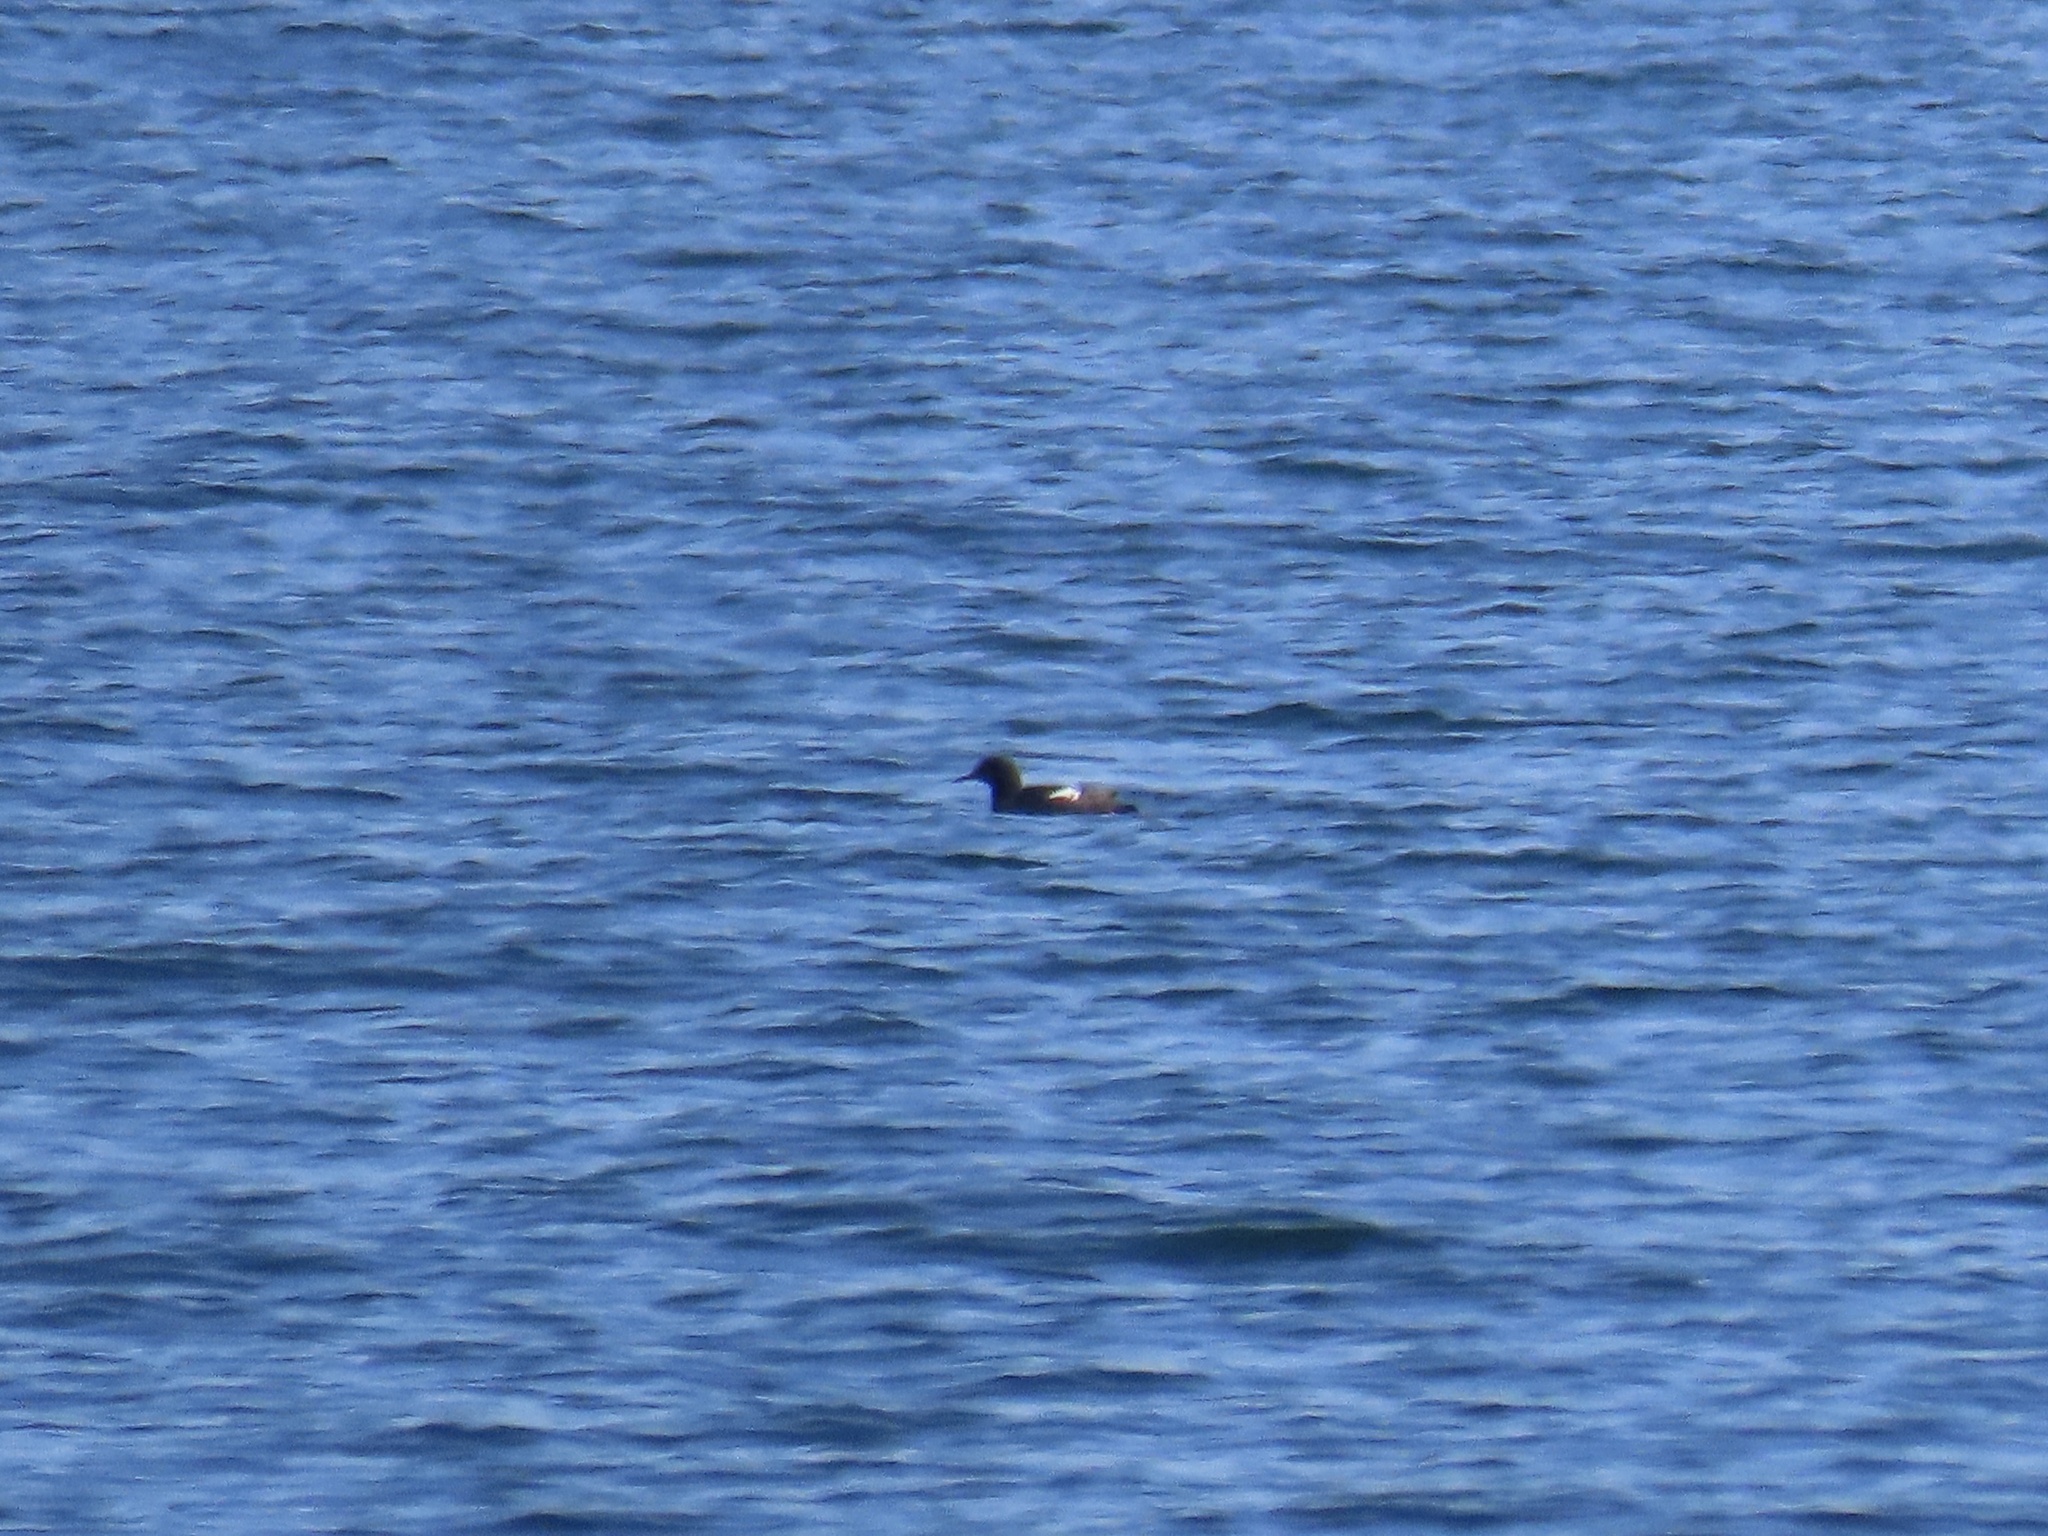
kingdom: Animalia
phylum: Chordata
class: Aves
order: Charadriiformes
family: Alcidae
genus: Cepphus
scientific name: Cepphus columba
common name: Pigeon guillemot
